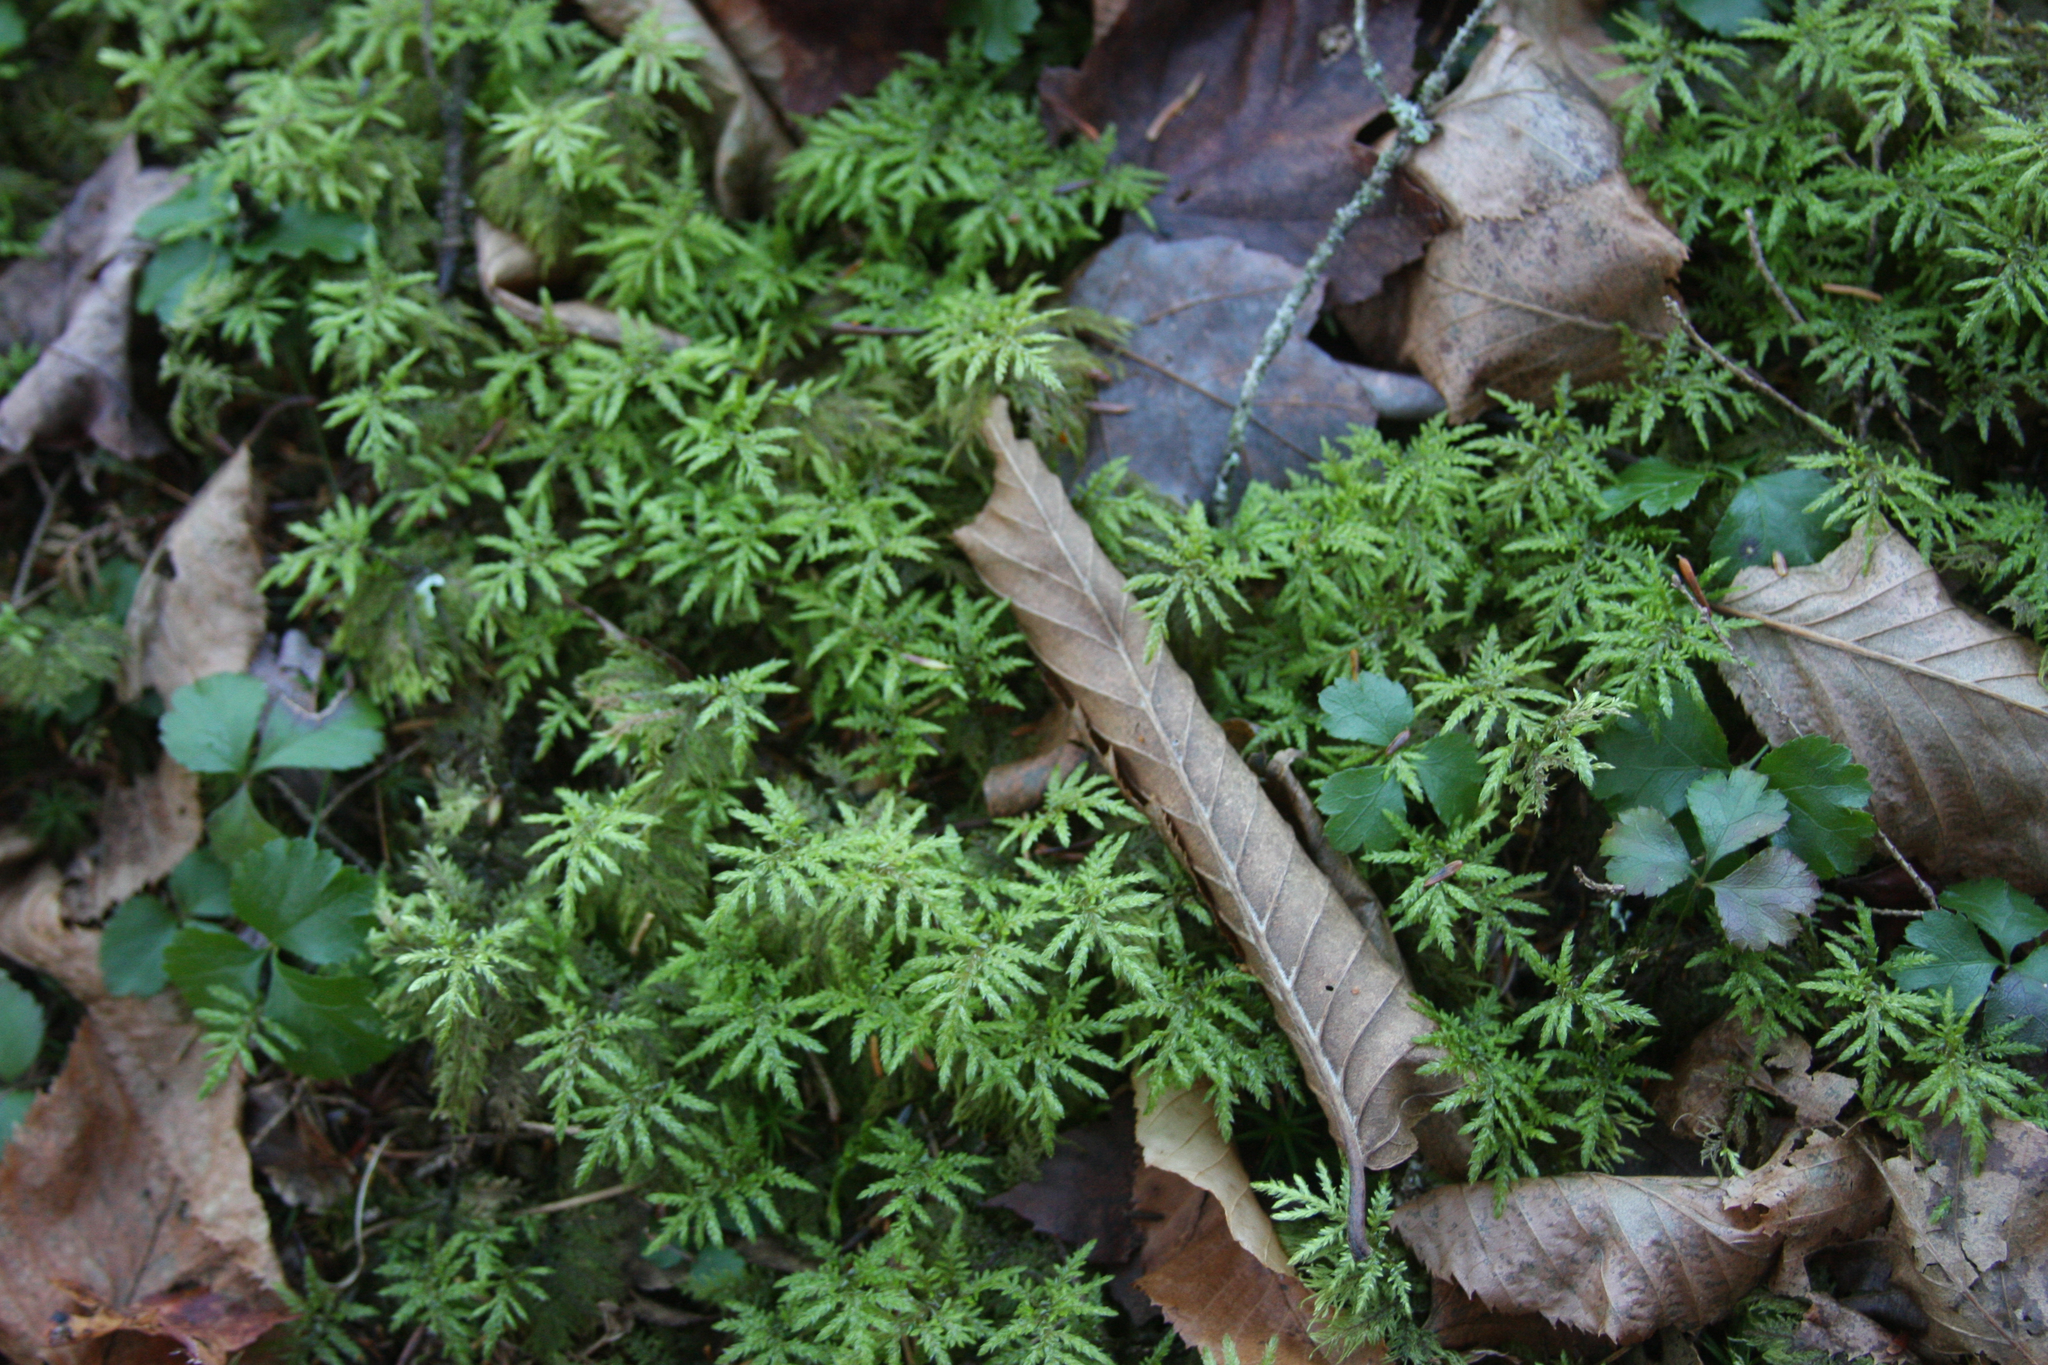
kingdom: Plantae
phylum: Bryophyta
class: Bryopsida
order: Hypnales
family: Hylocomiaceae
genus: Hylocomium
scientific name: Hylocomium splendens
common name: Stairstep moss
